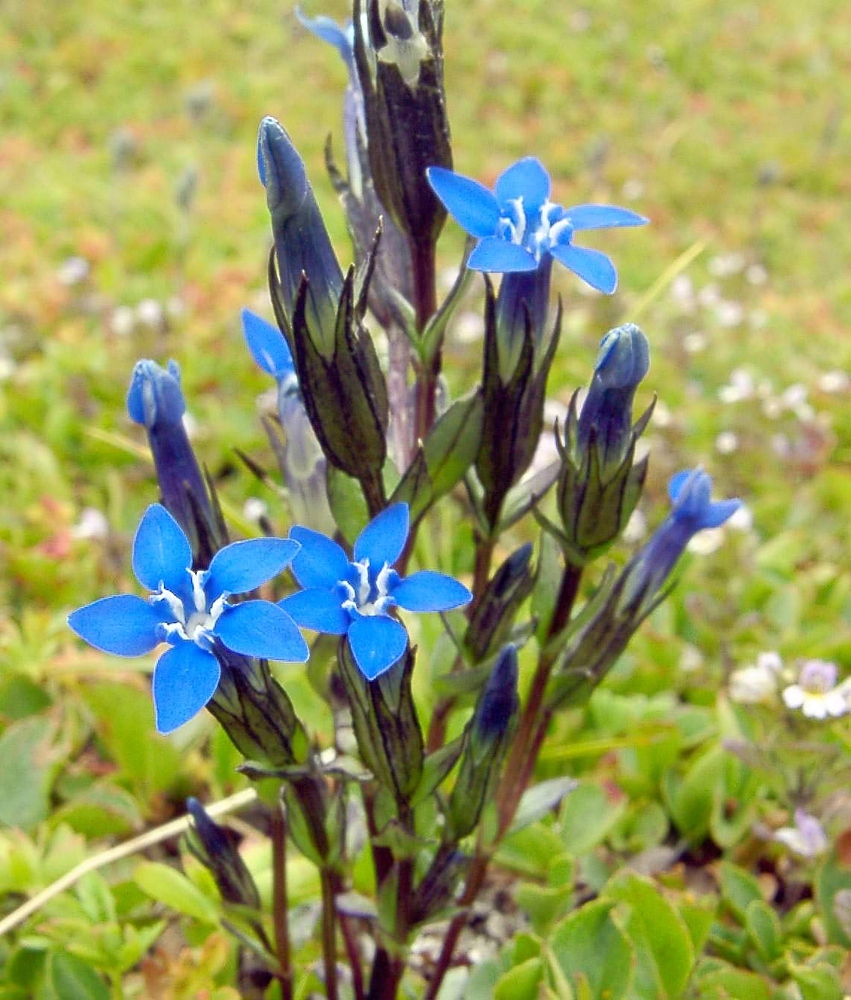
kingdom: Plantae
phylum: Tracheophyta
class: Magnoliopsida
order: Gentianales
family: Gentianaceae
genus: Gentiana
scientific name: Gentiana nivalis
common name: Alpine gentian
